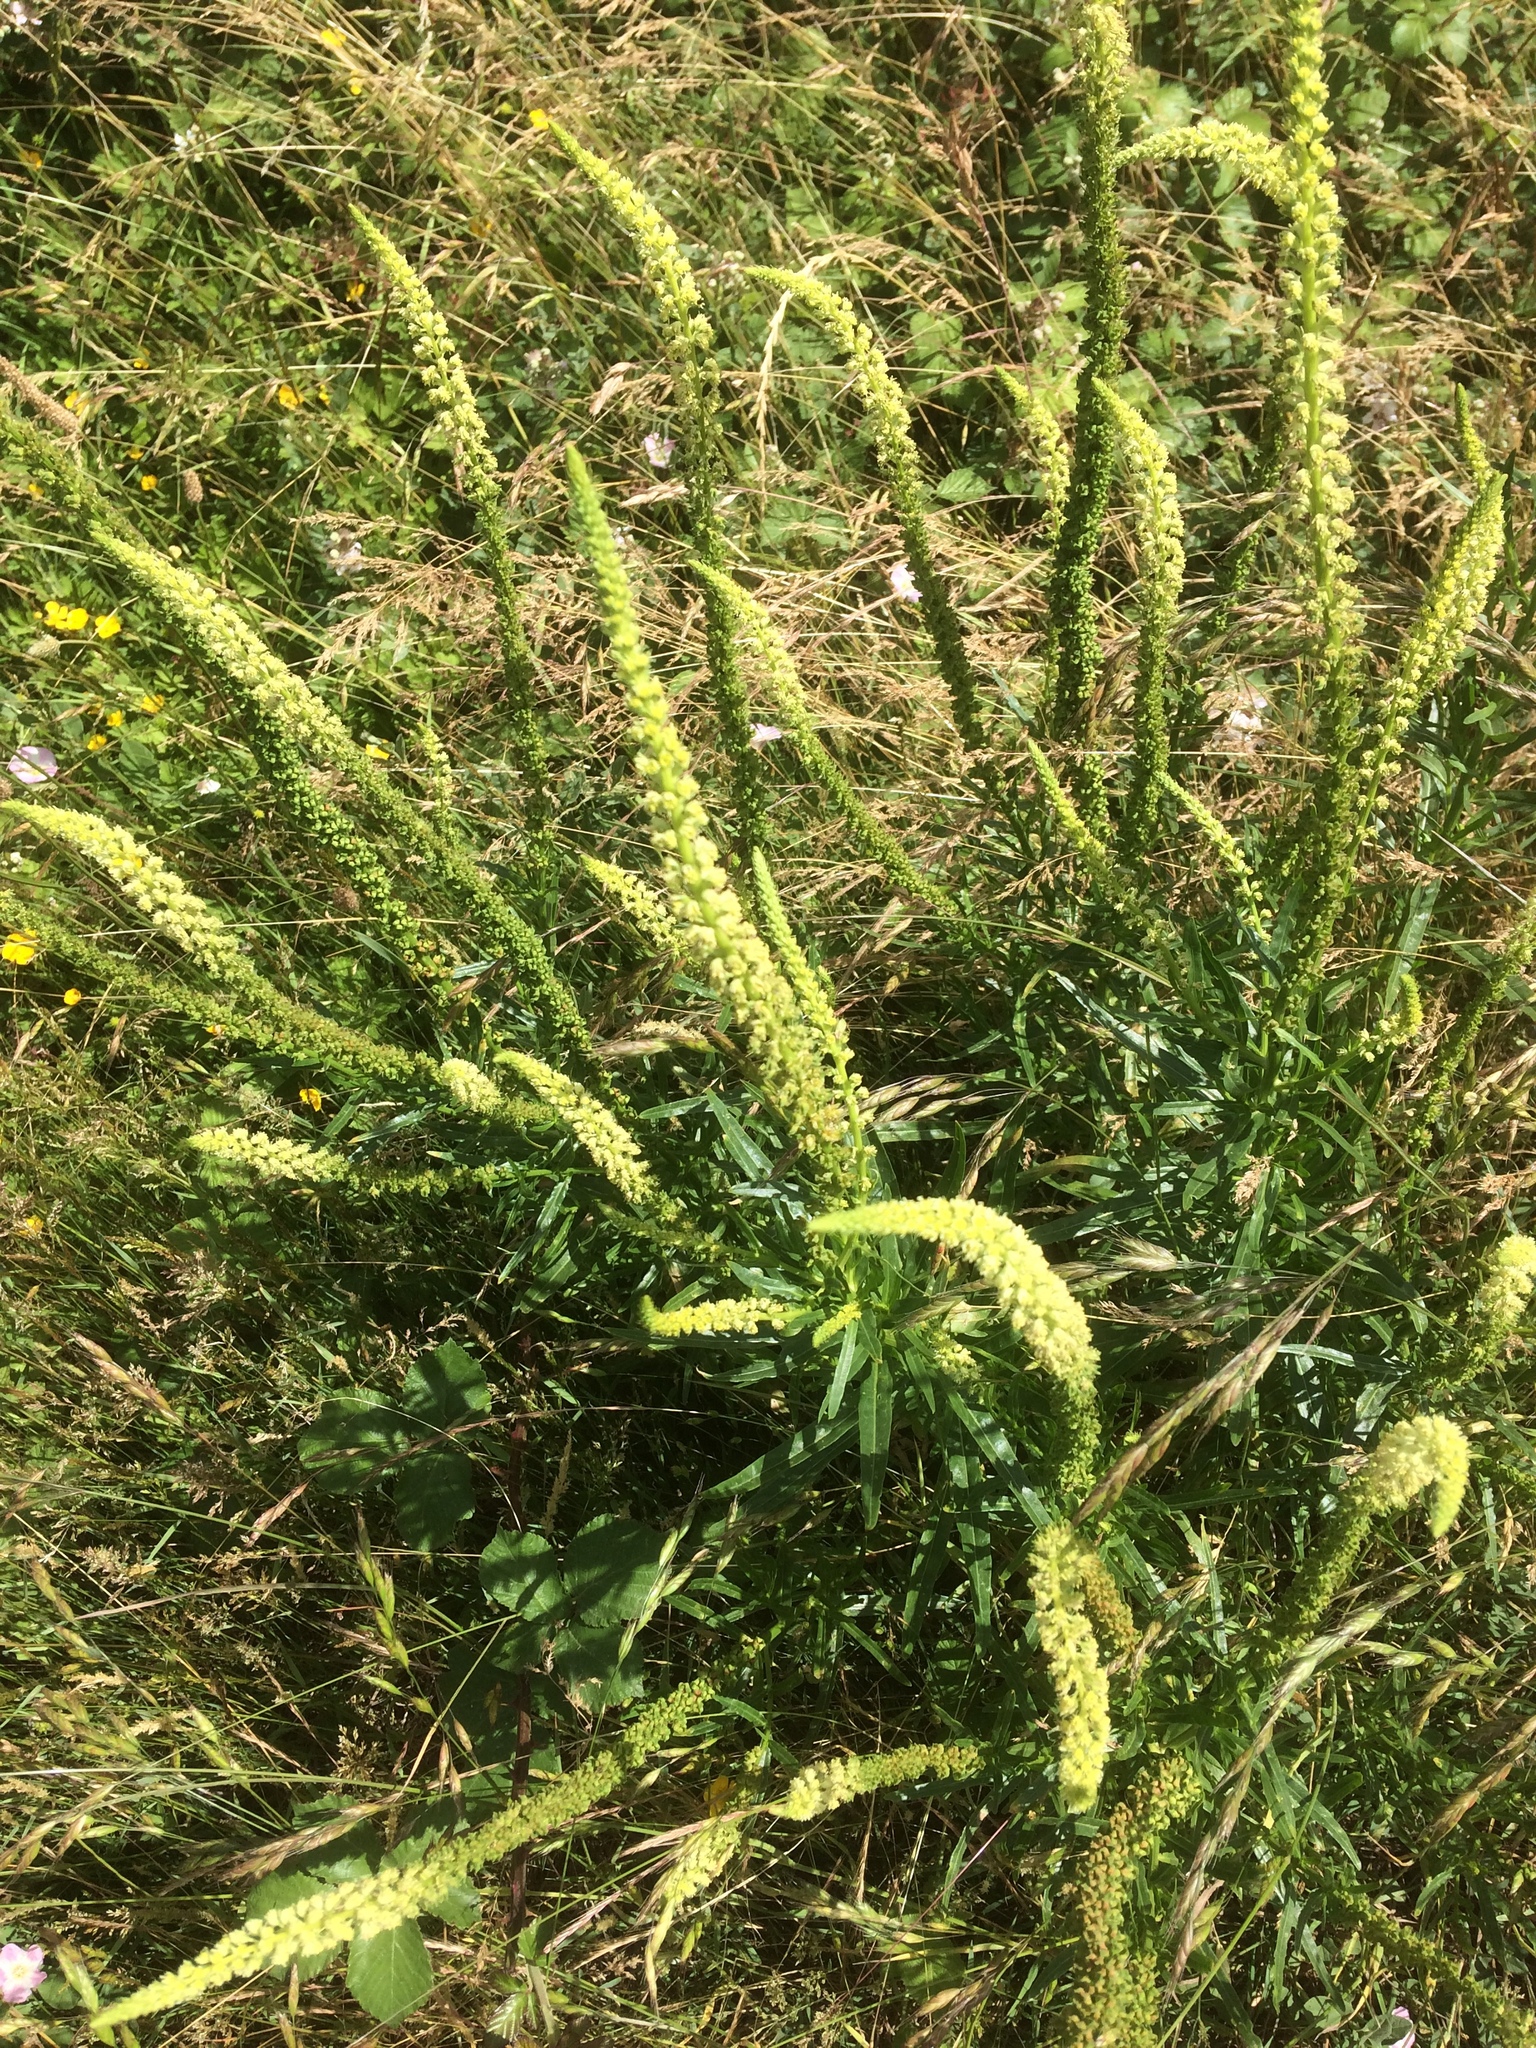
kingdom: Plantae
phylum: Tracheophyta
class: Magnoliopsida
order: Brassicales
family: Resedaceae
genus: Reseda
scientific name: Reseda luteola
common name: Weld
